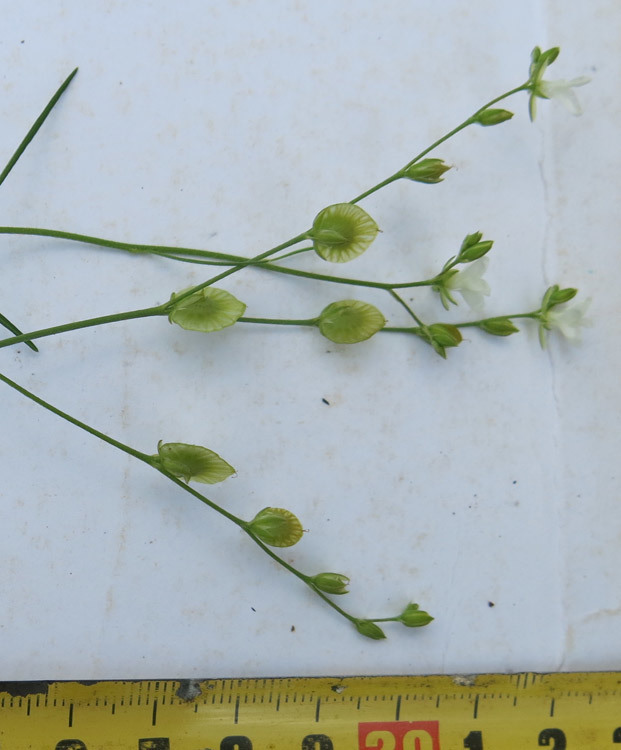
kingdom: Plantae
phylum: Tracheophyta
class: Magnoliopsida
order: Caryophyllales
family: Limeaceae
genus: Limeum
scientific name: Limeum fenestratum
